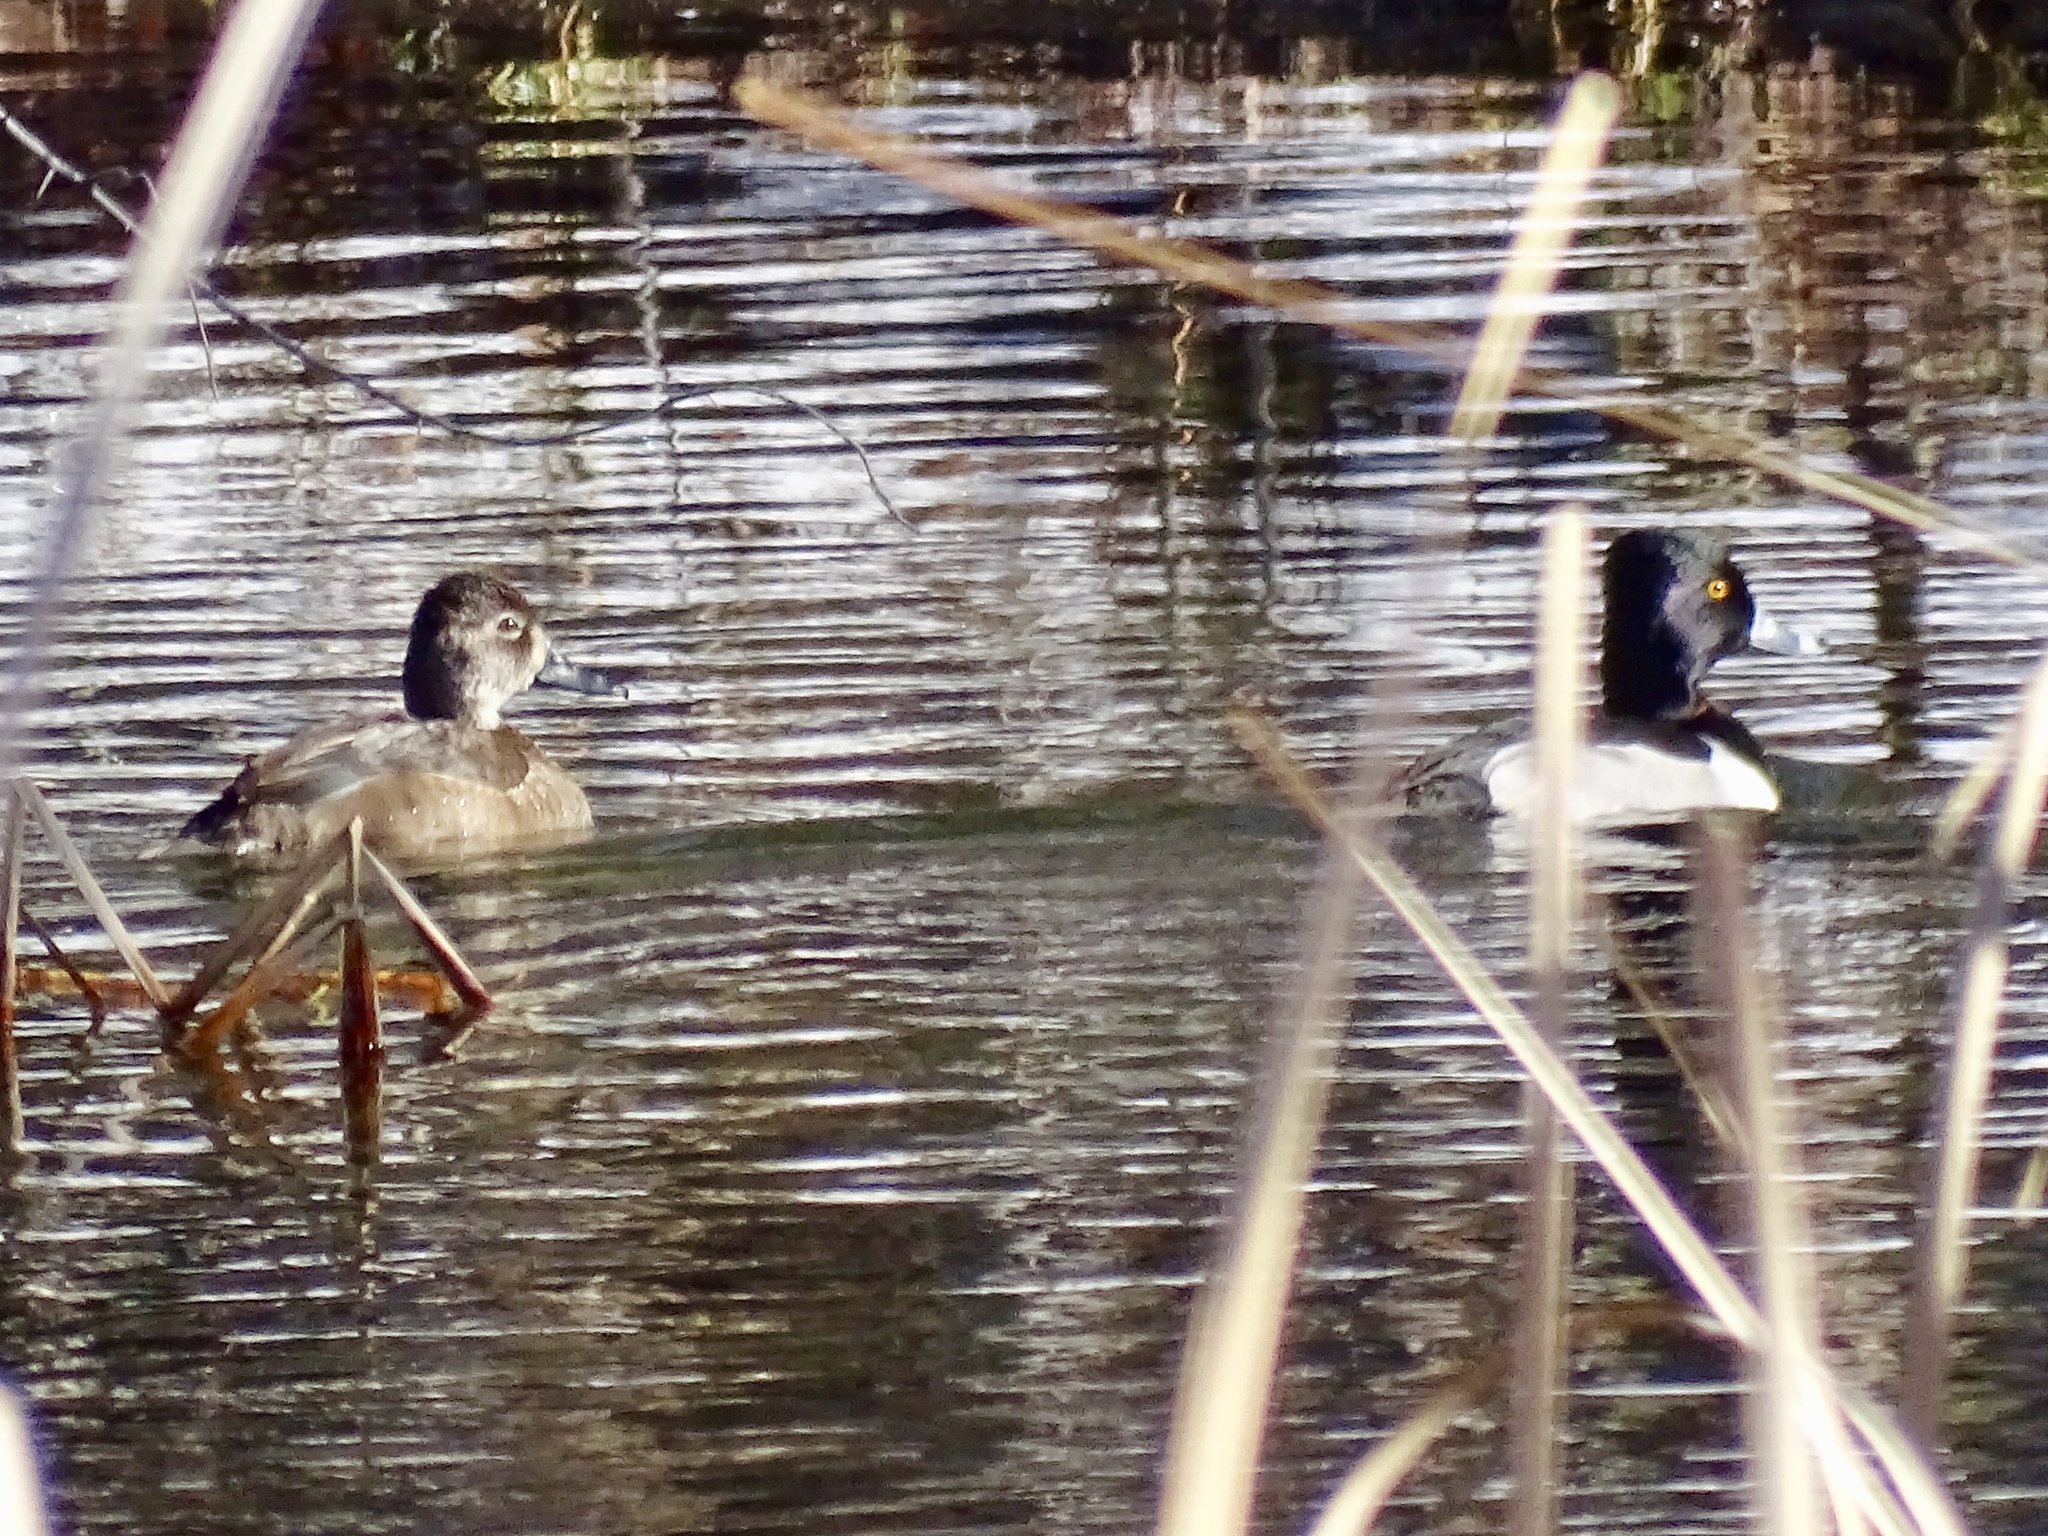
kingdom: Animalia
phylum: Chordata
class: Aves
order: Anseriformes
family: Anatidae
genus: Aythya
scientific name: Aythya collaris
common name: Ring-necked duck
